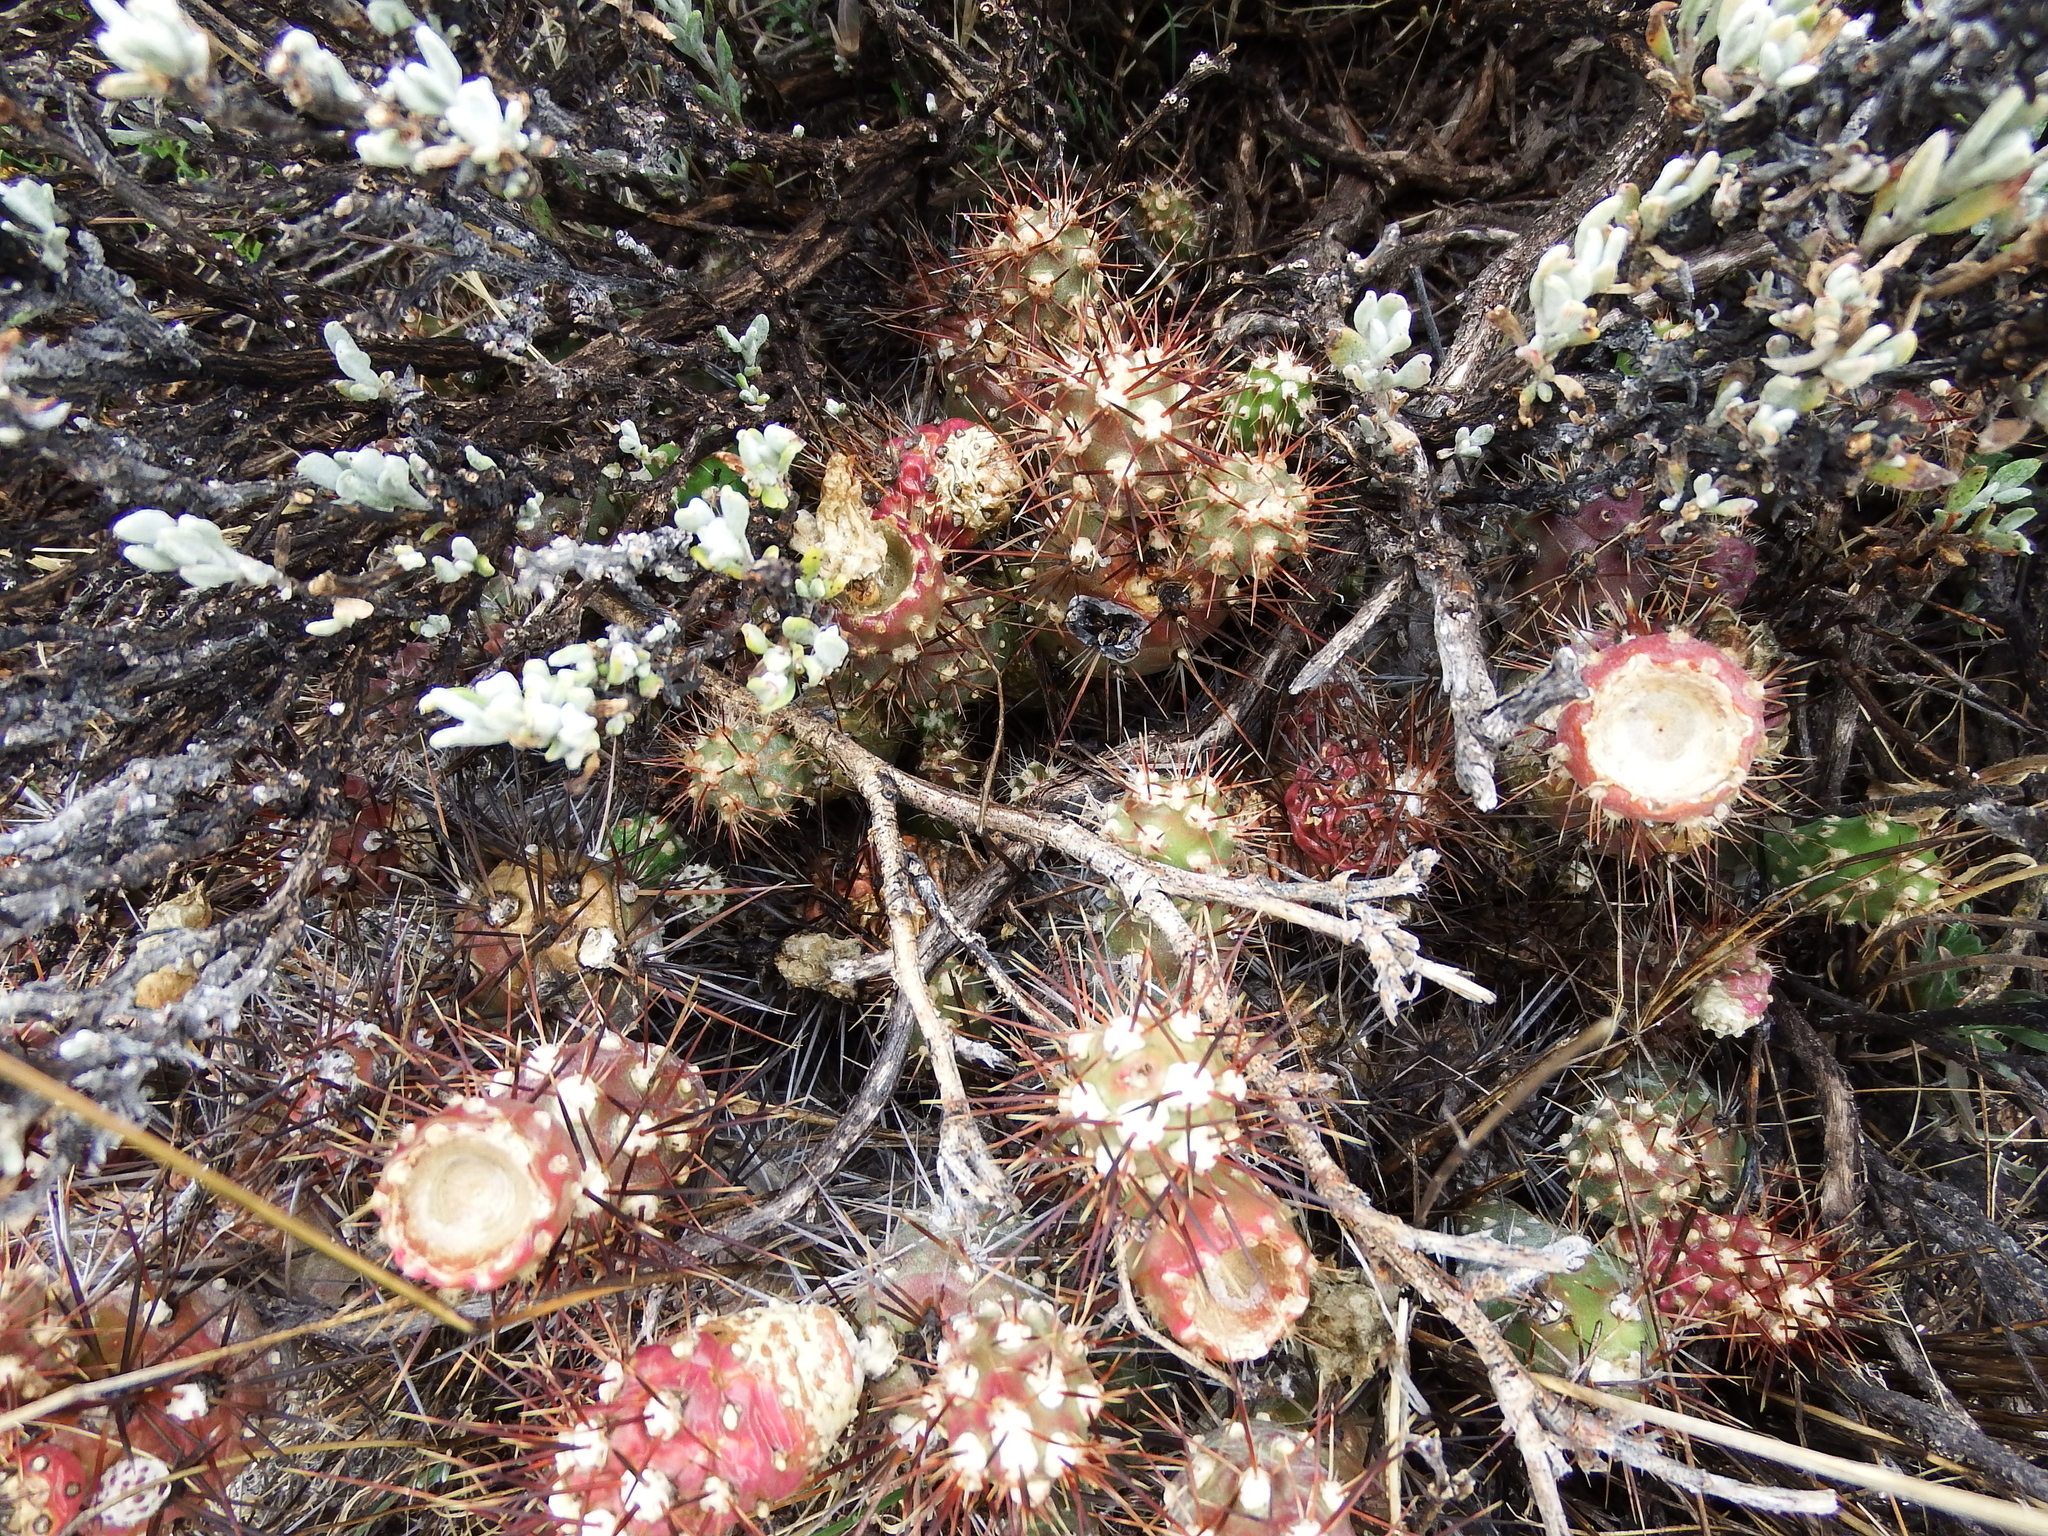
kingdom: Plantae
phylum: Tracheophyta
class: Magnoliopsida
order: Caryophyllales
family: Cactaceae
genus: Cumulopuntia
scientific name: Cumulopuntia leucophaea
